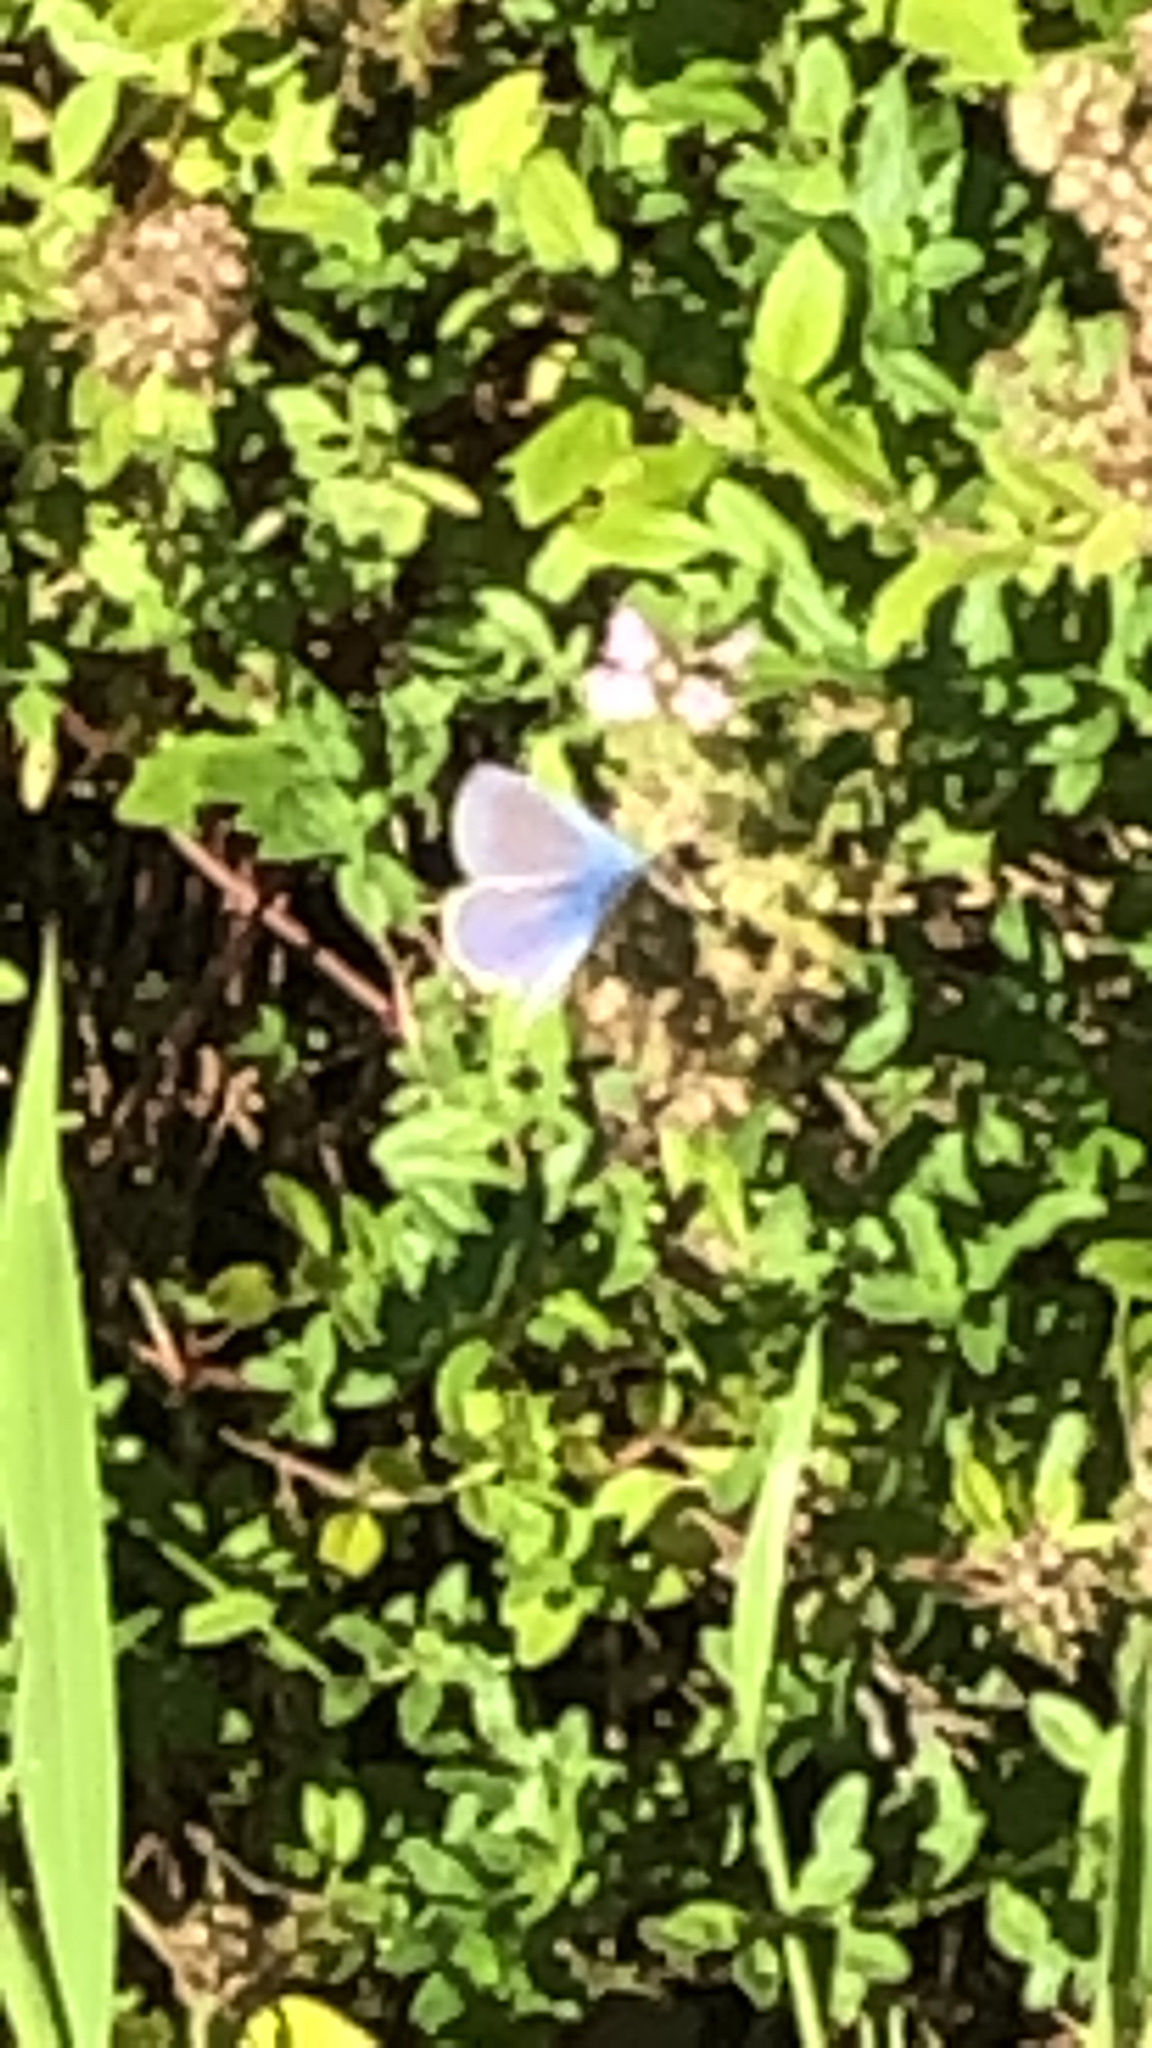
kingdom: Animalia
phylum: Arthropoda
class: Insecta
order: Lepidoptera
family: Lycaenidae
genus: Polyommatus
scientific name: Polyommatus icarus
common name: Common blue
